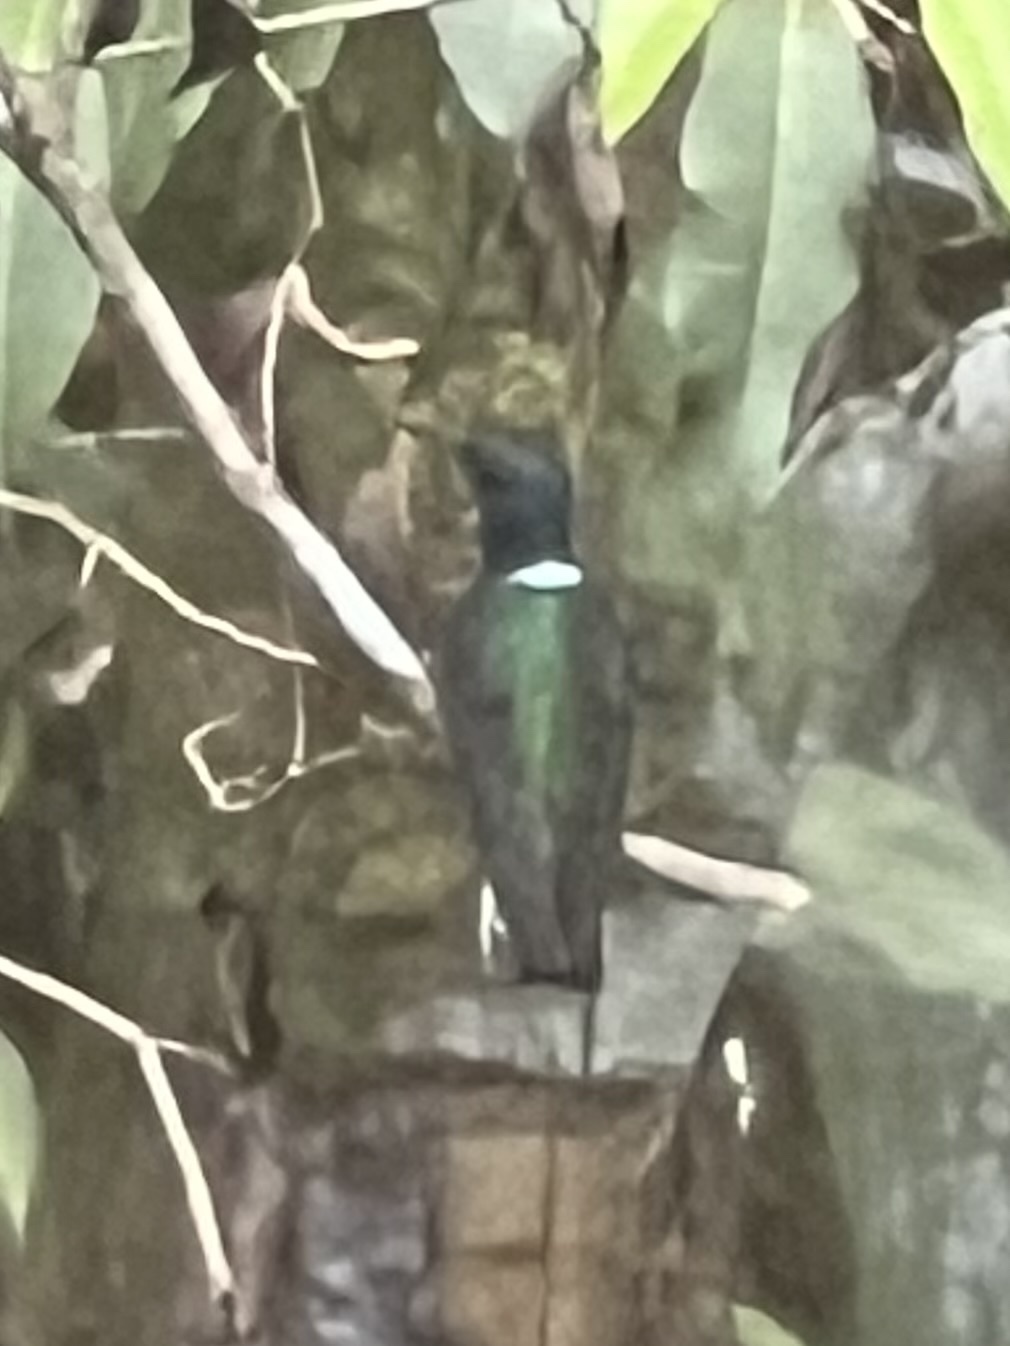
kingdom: Animalia
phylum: Chordata
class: Aves
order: Apodiformes
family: Trochilidae
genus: Florisuga
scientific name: Florisuga mellivora
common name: White-necked jacobin
